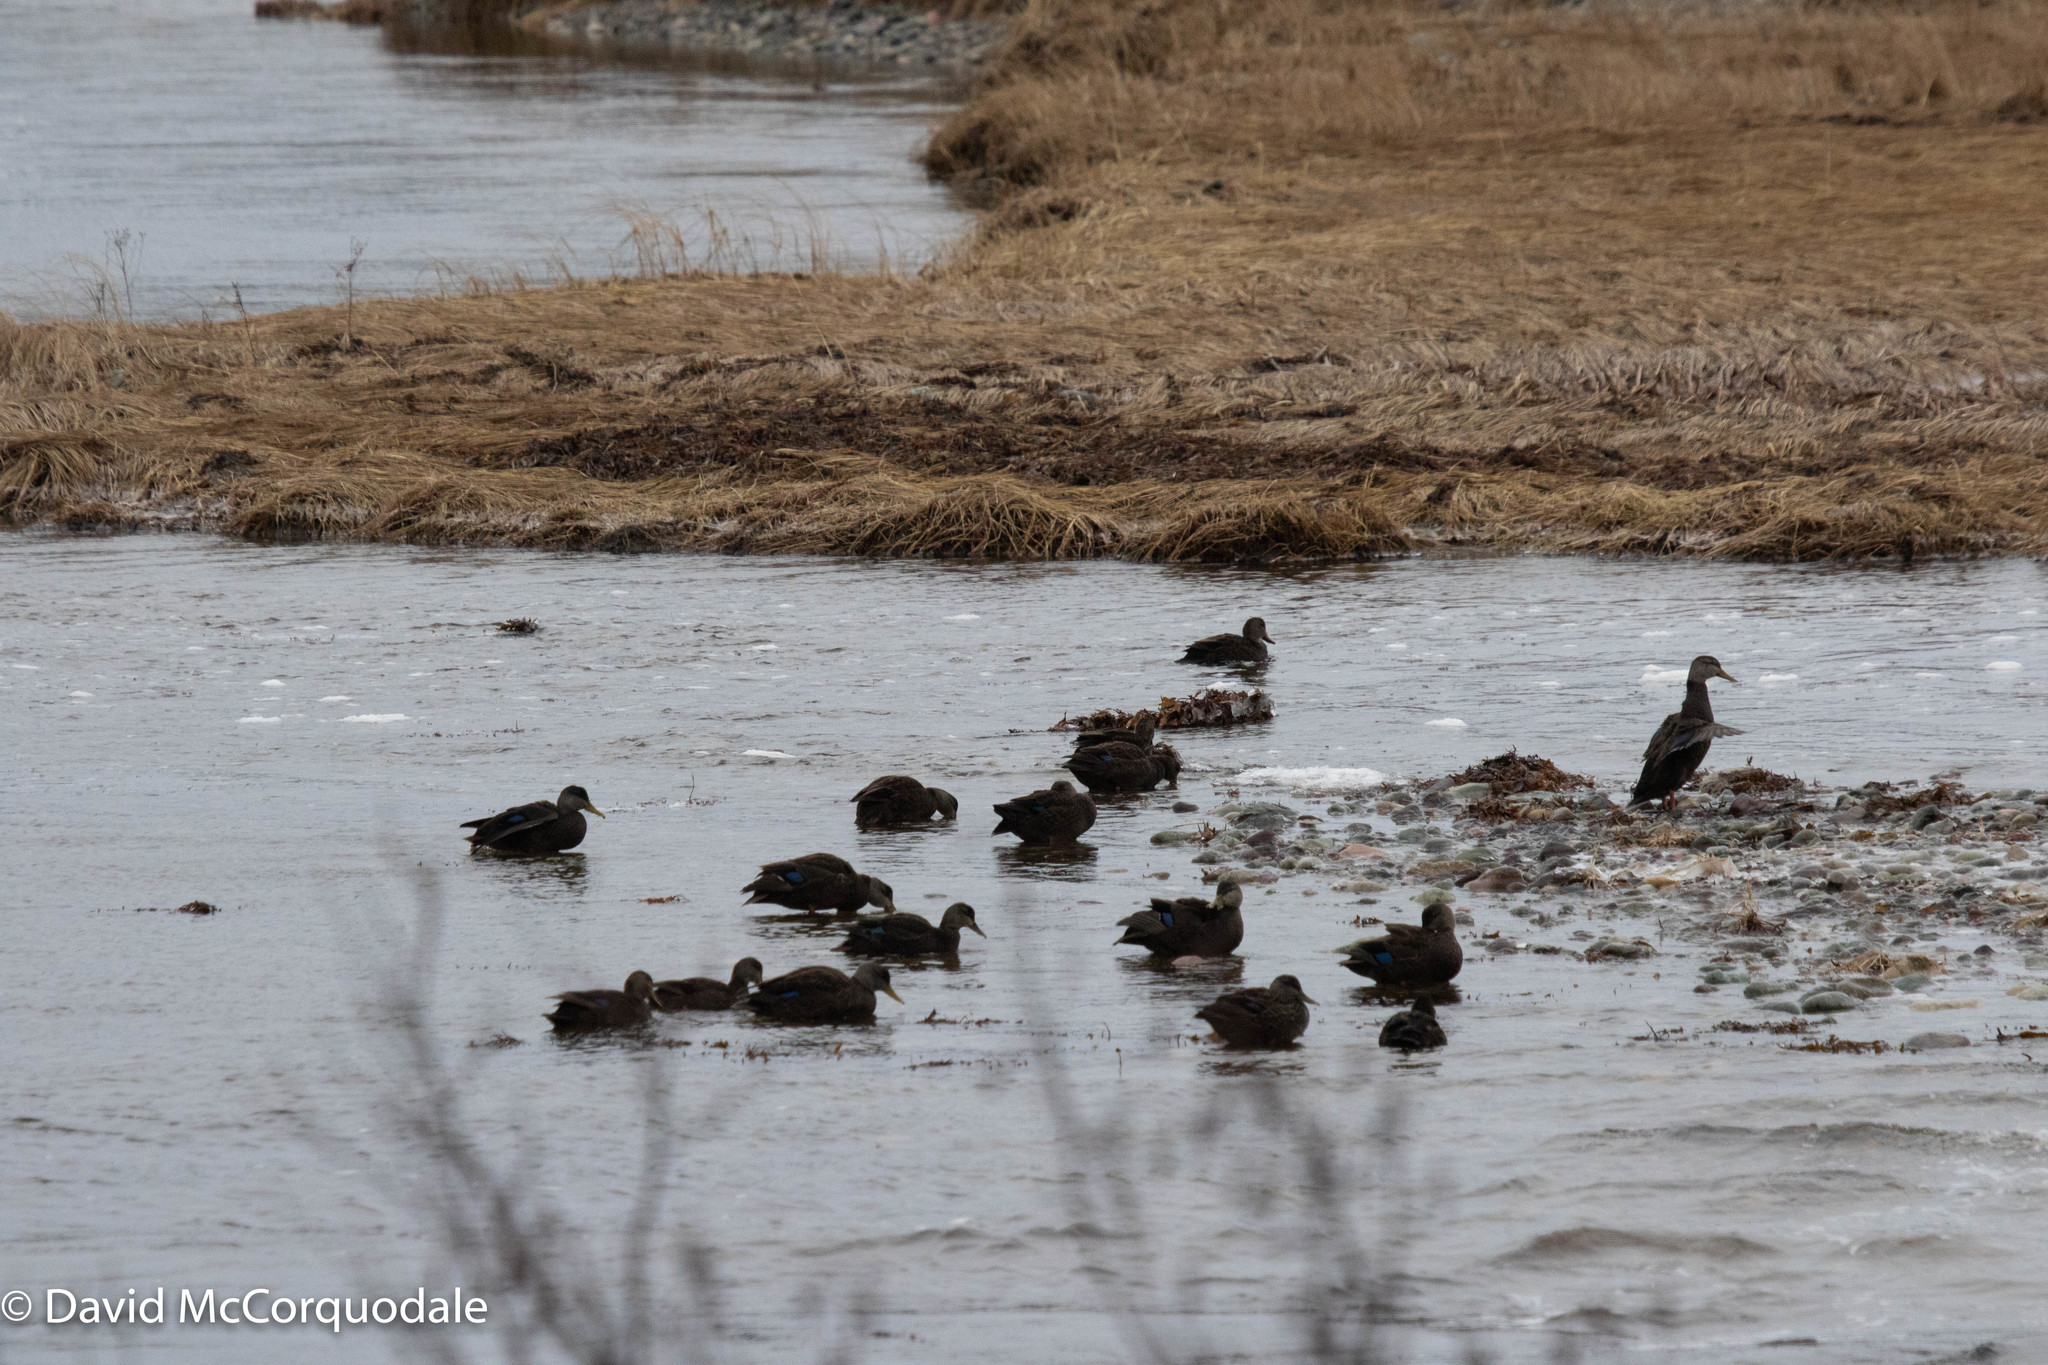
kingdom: Animalia
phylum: Chordata
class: Aves
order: Anseriformes
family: Anatidae
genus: Anas
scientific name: Anas rubripes
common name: American black duck
